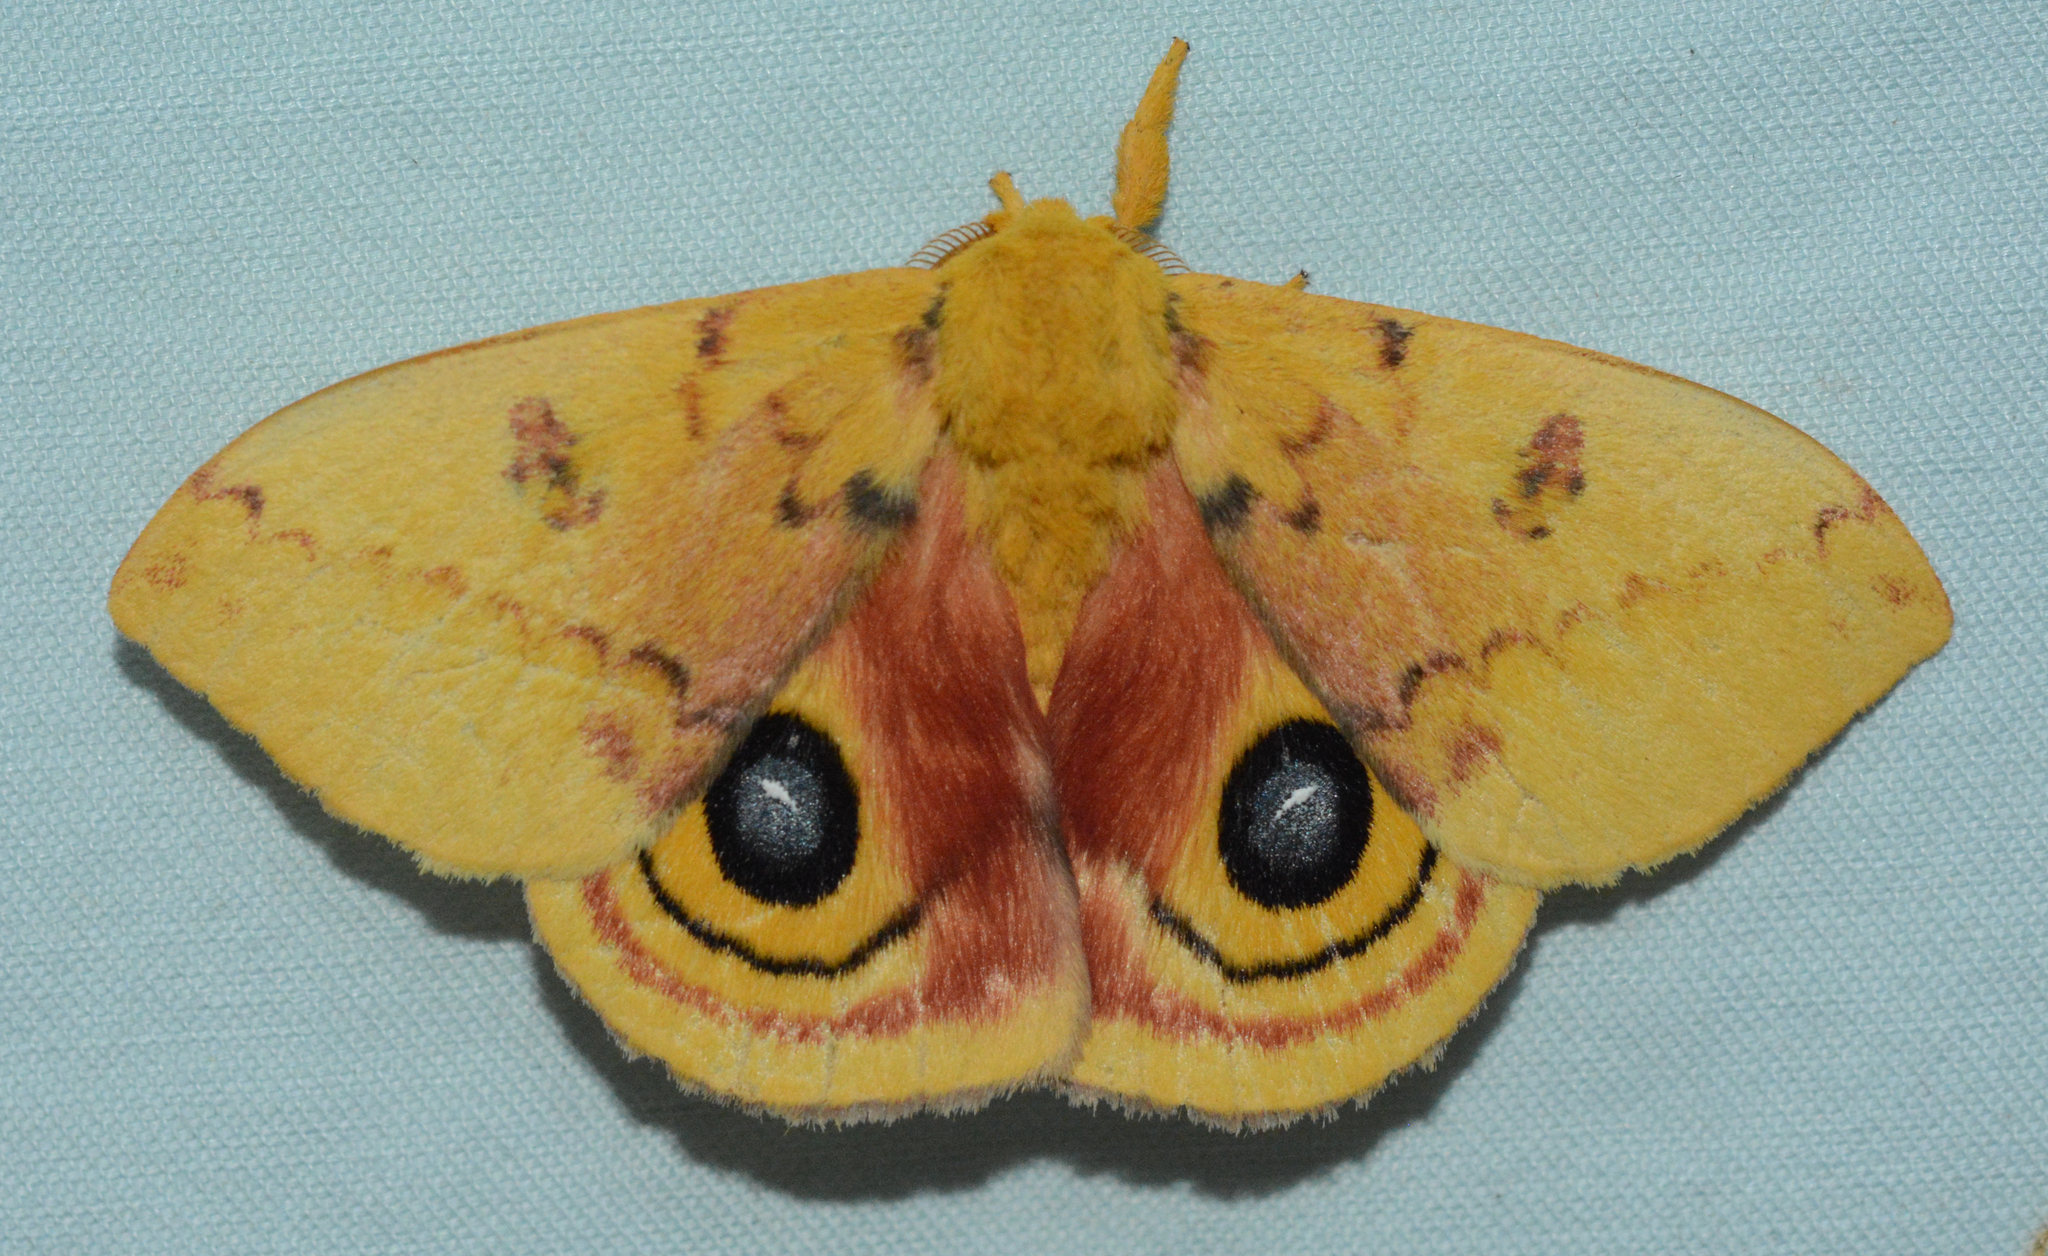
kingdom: Animalia
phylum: Arthropoda
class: Insecta
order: Lepidoptera
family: Saturniidae
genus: Automeris
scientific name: Automeris io
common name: Io moth
